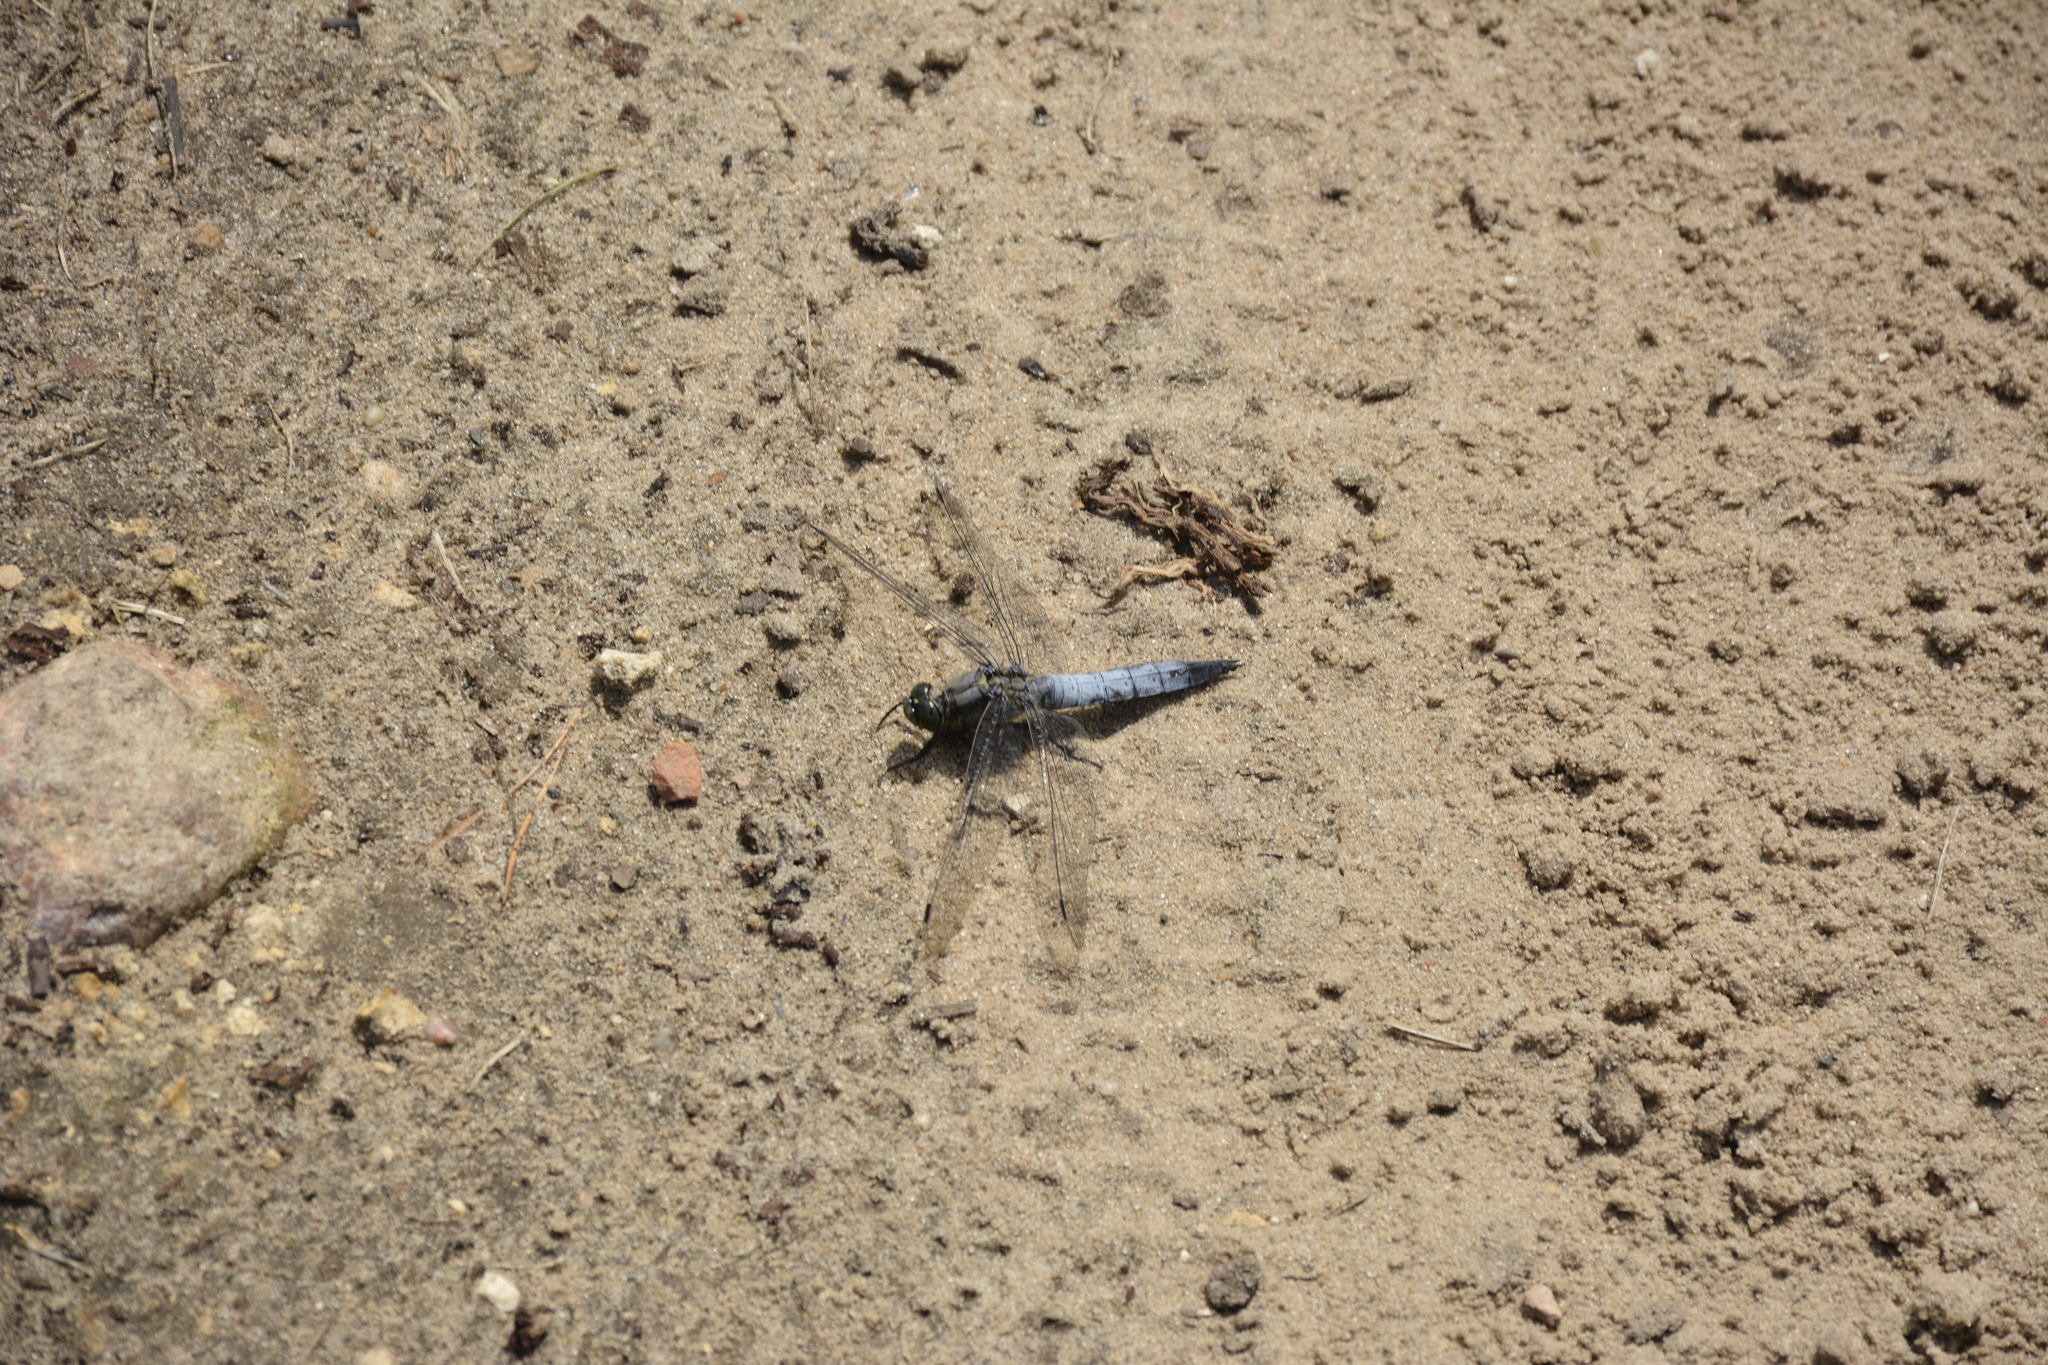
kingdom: Animalia
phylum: Arthropoda
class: Insecta
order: Odonata
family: Libellulidae
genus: Orthetrum
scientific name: Orthetrum cancellatum
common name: Black-tailed skimmer
